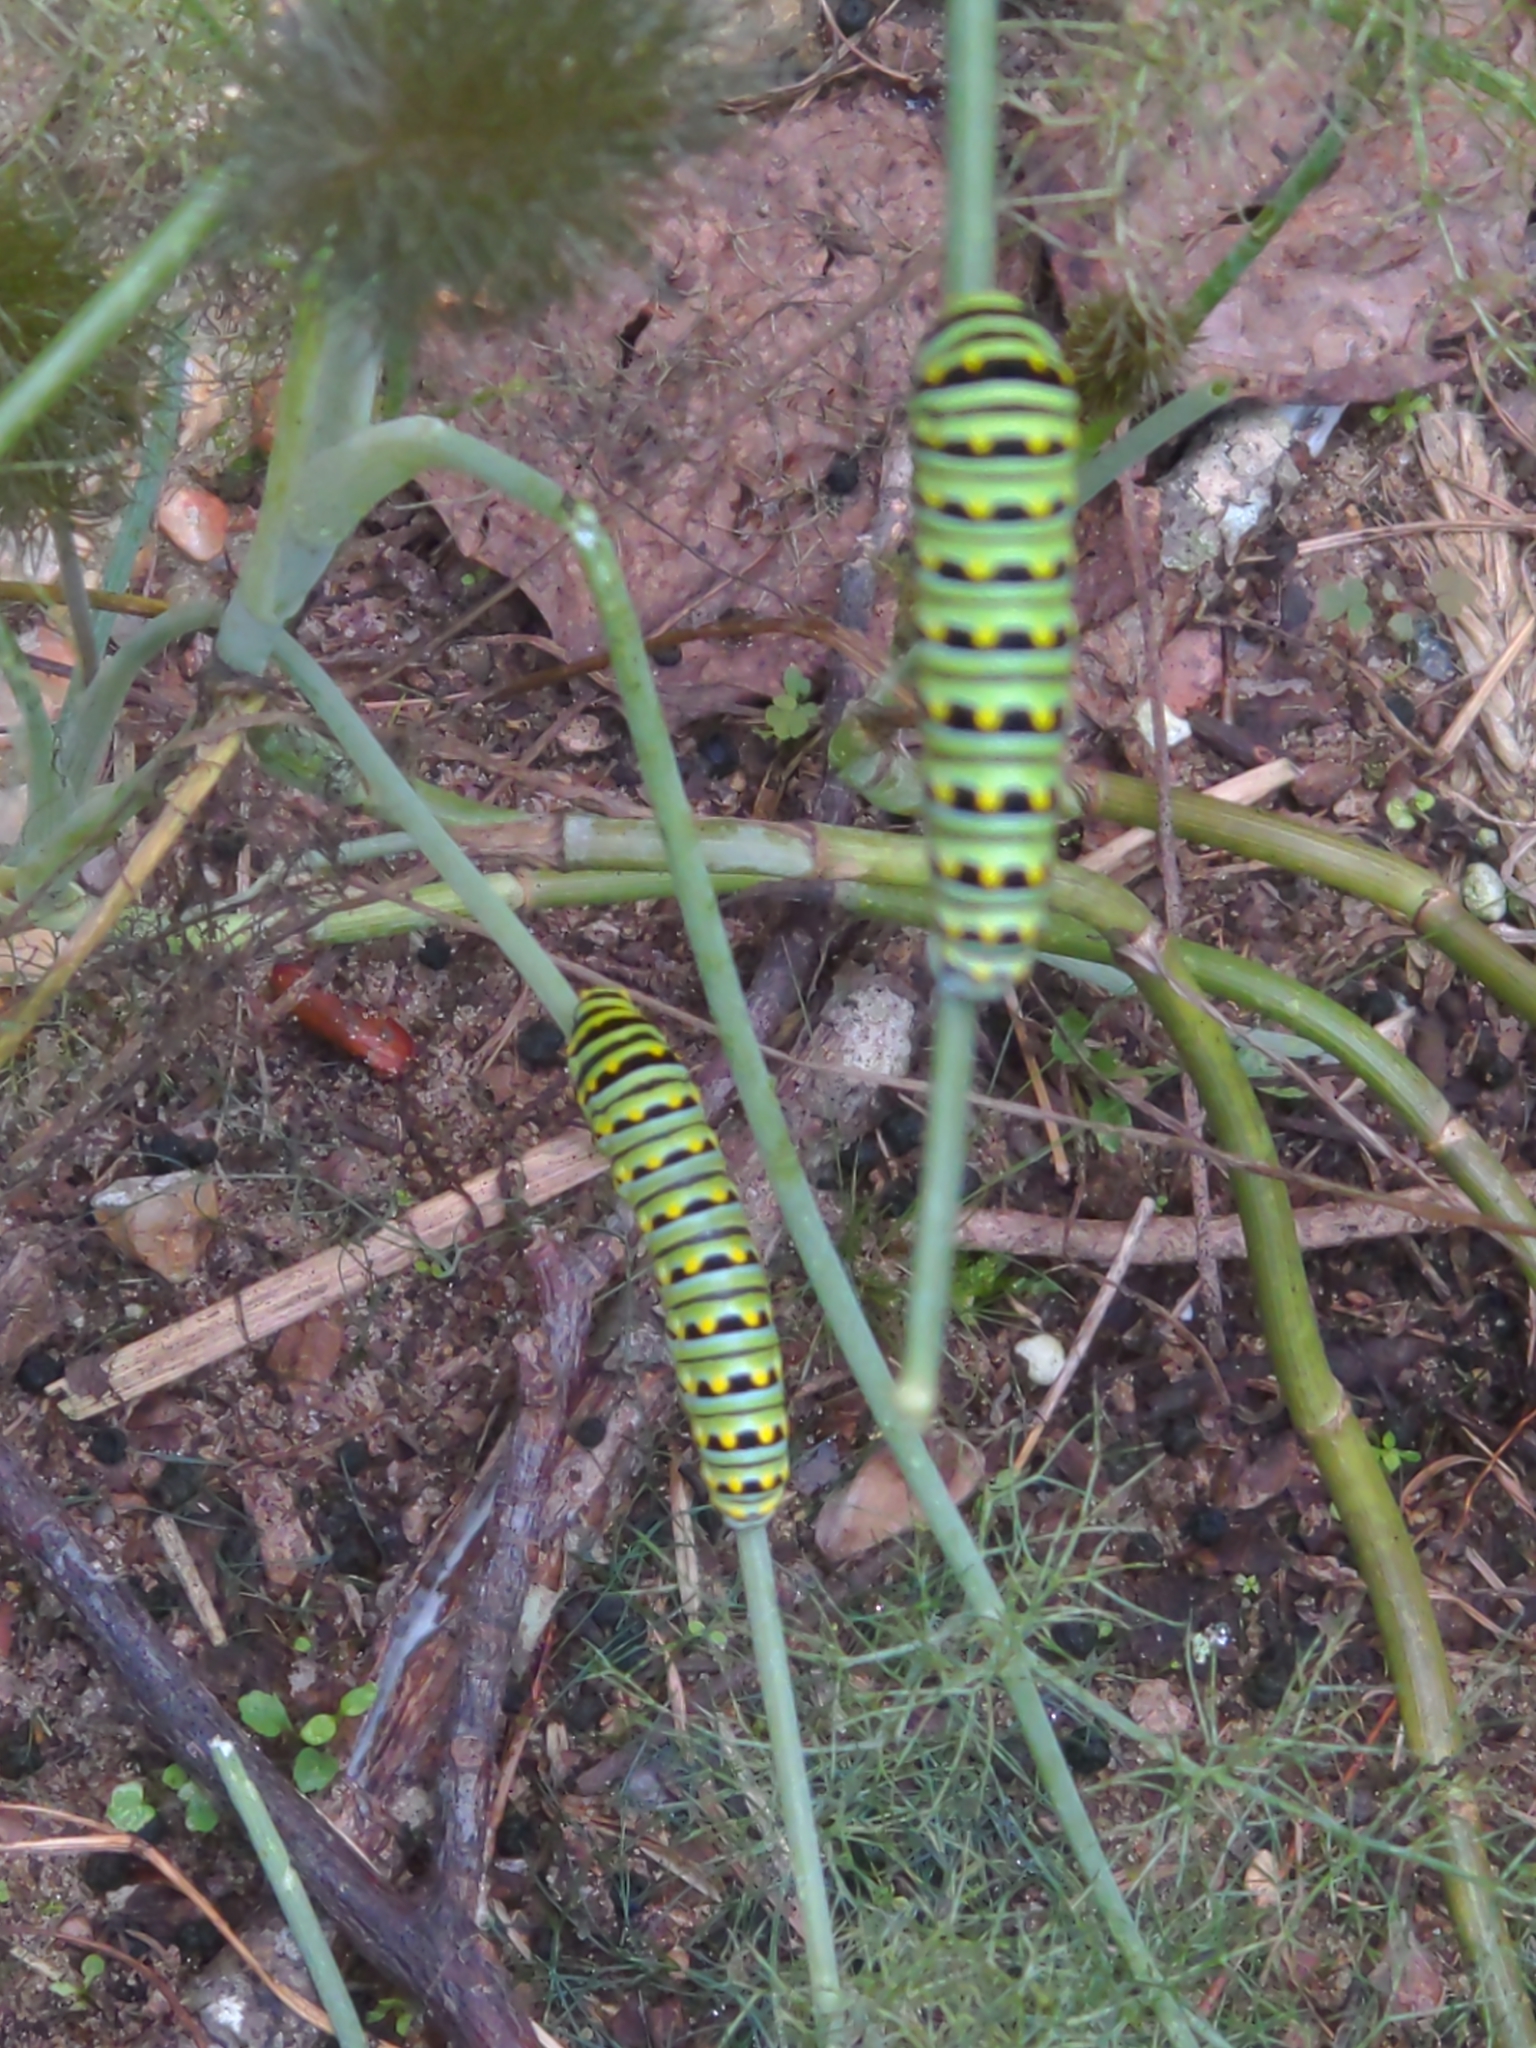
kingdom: Animalia
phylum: Arthropoda
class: Insecta
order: Lepidoptera
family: Papilionidae
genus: Papilio
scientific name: Papilio polyxenes
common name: Black swallowtail
